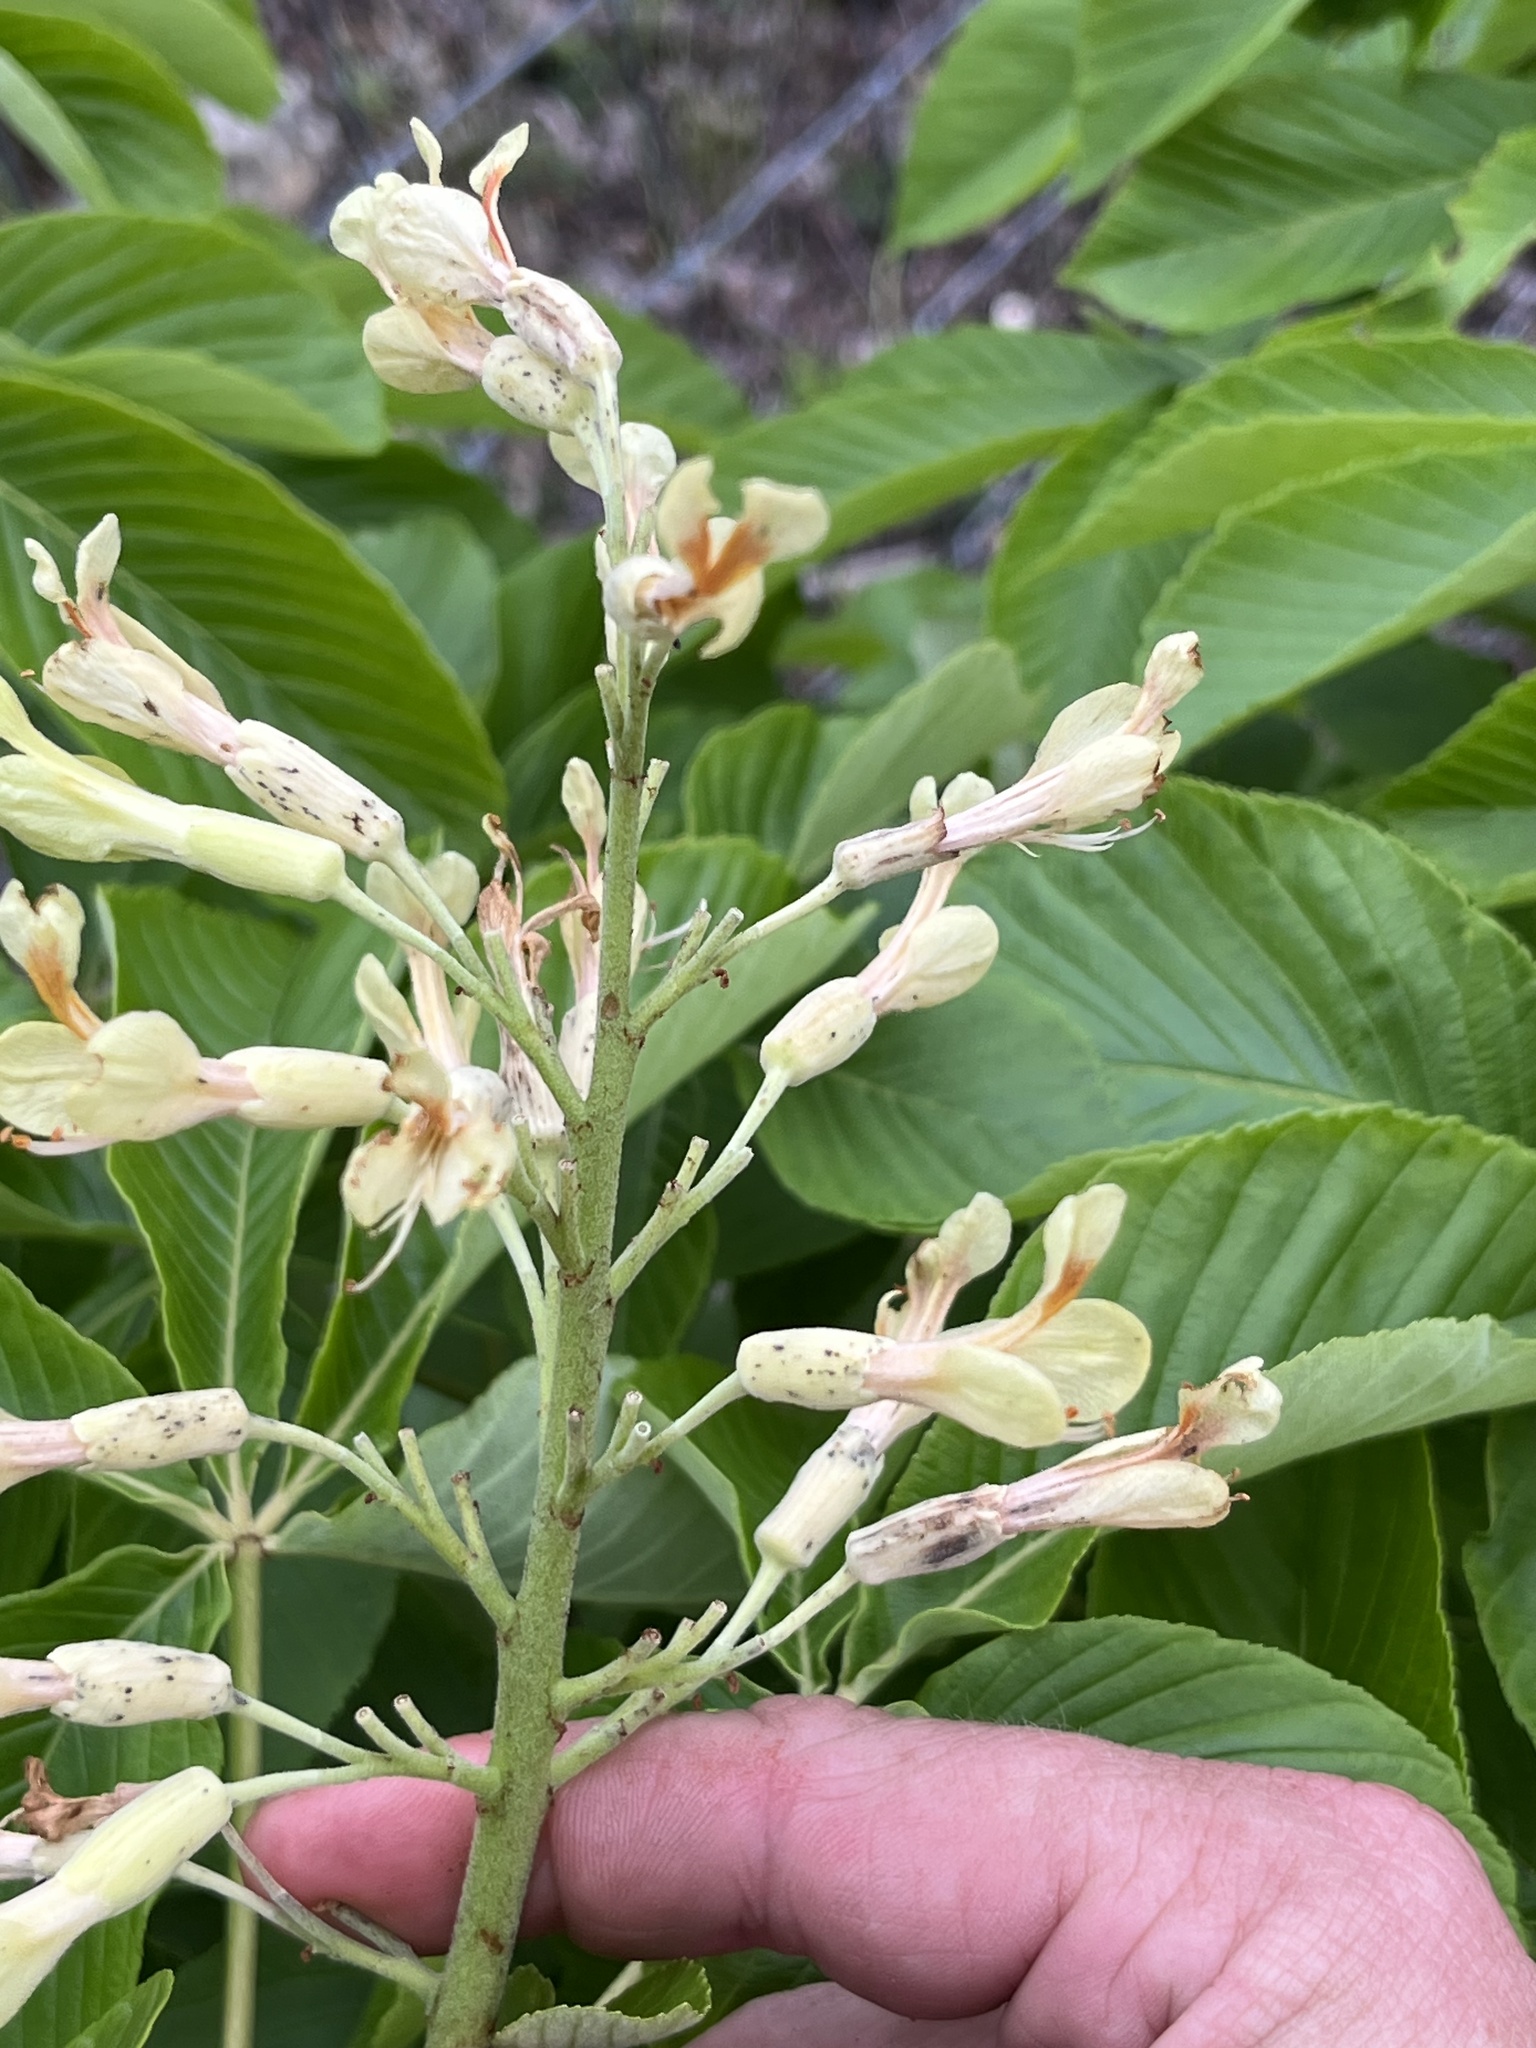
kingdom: Plantae
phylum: Tracheophyta
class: Magnoliopsida
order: Sapindales
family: Sapindaceae
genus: Aesculus
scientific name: Aesculus pavia
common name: Red buckeye
